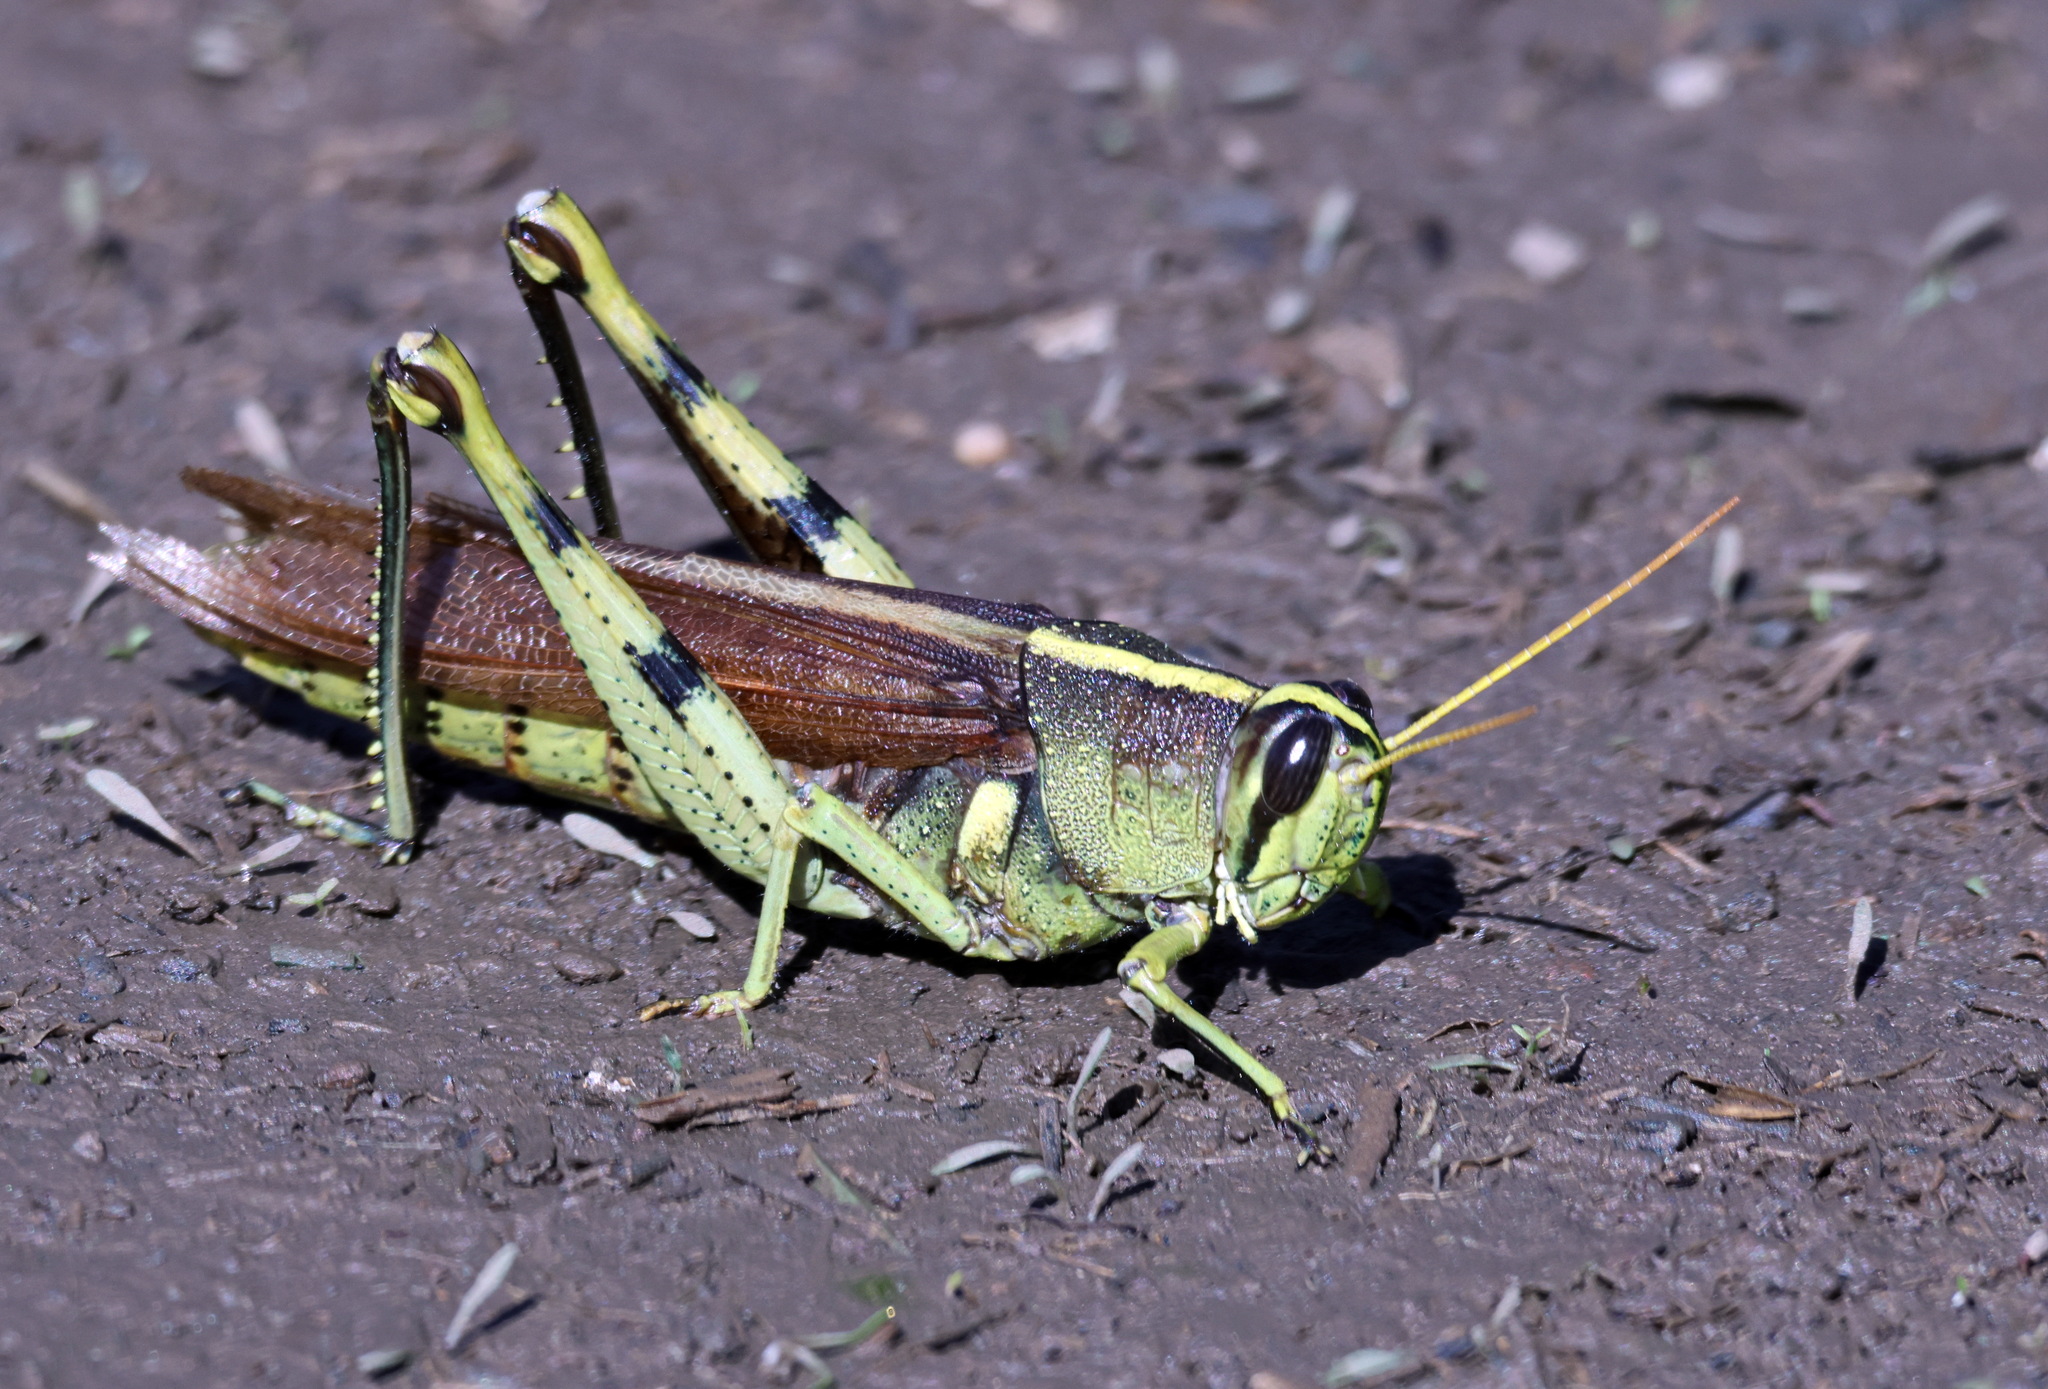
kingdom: Animalia
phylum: Arthropoda
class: Insecta
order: Orthoptera
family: Acrididae
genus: Schistocerca
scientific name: Schistocerca obscura
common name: Obscure bird grasshopper
